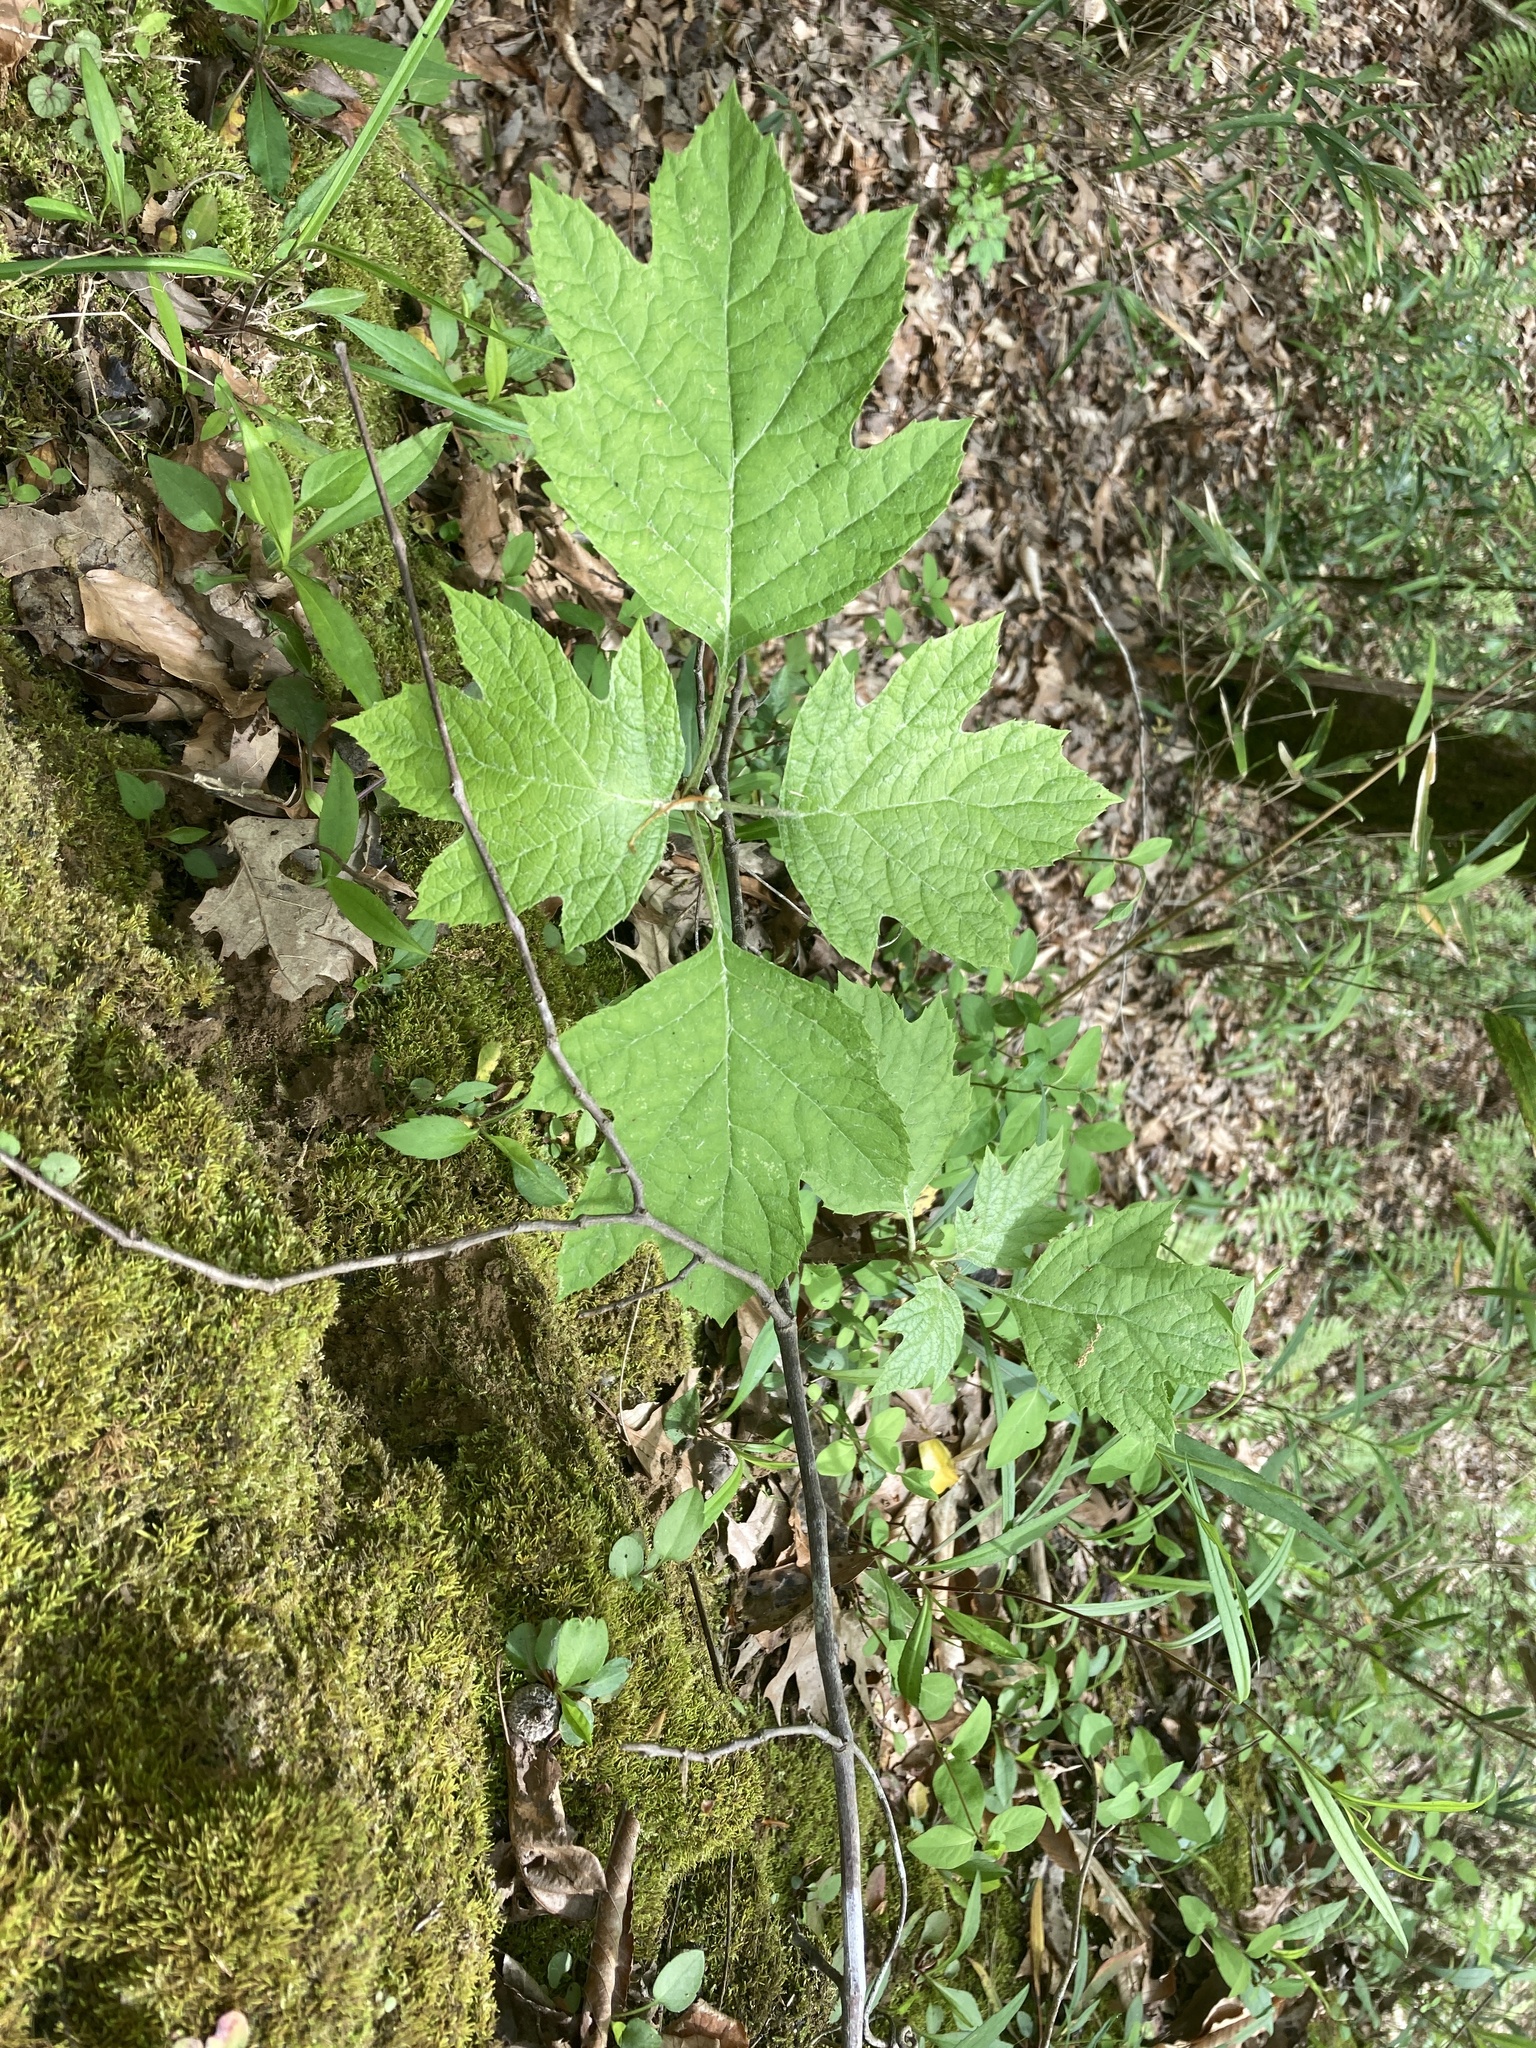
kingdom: Plantae
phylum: Tracheophyta
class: Magnoliopsida
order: Cornales
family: Hydrangeaceae
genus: Hydrangea
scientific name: Hydrangea quercifolia
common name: Oak-leaf hydrangea
